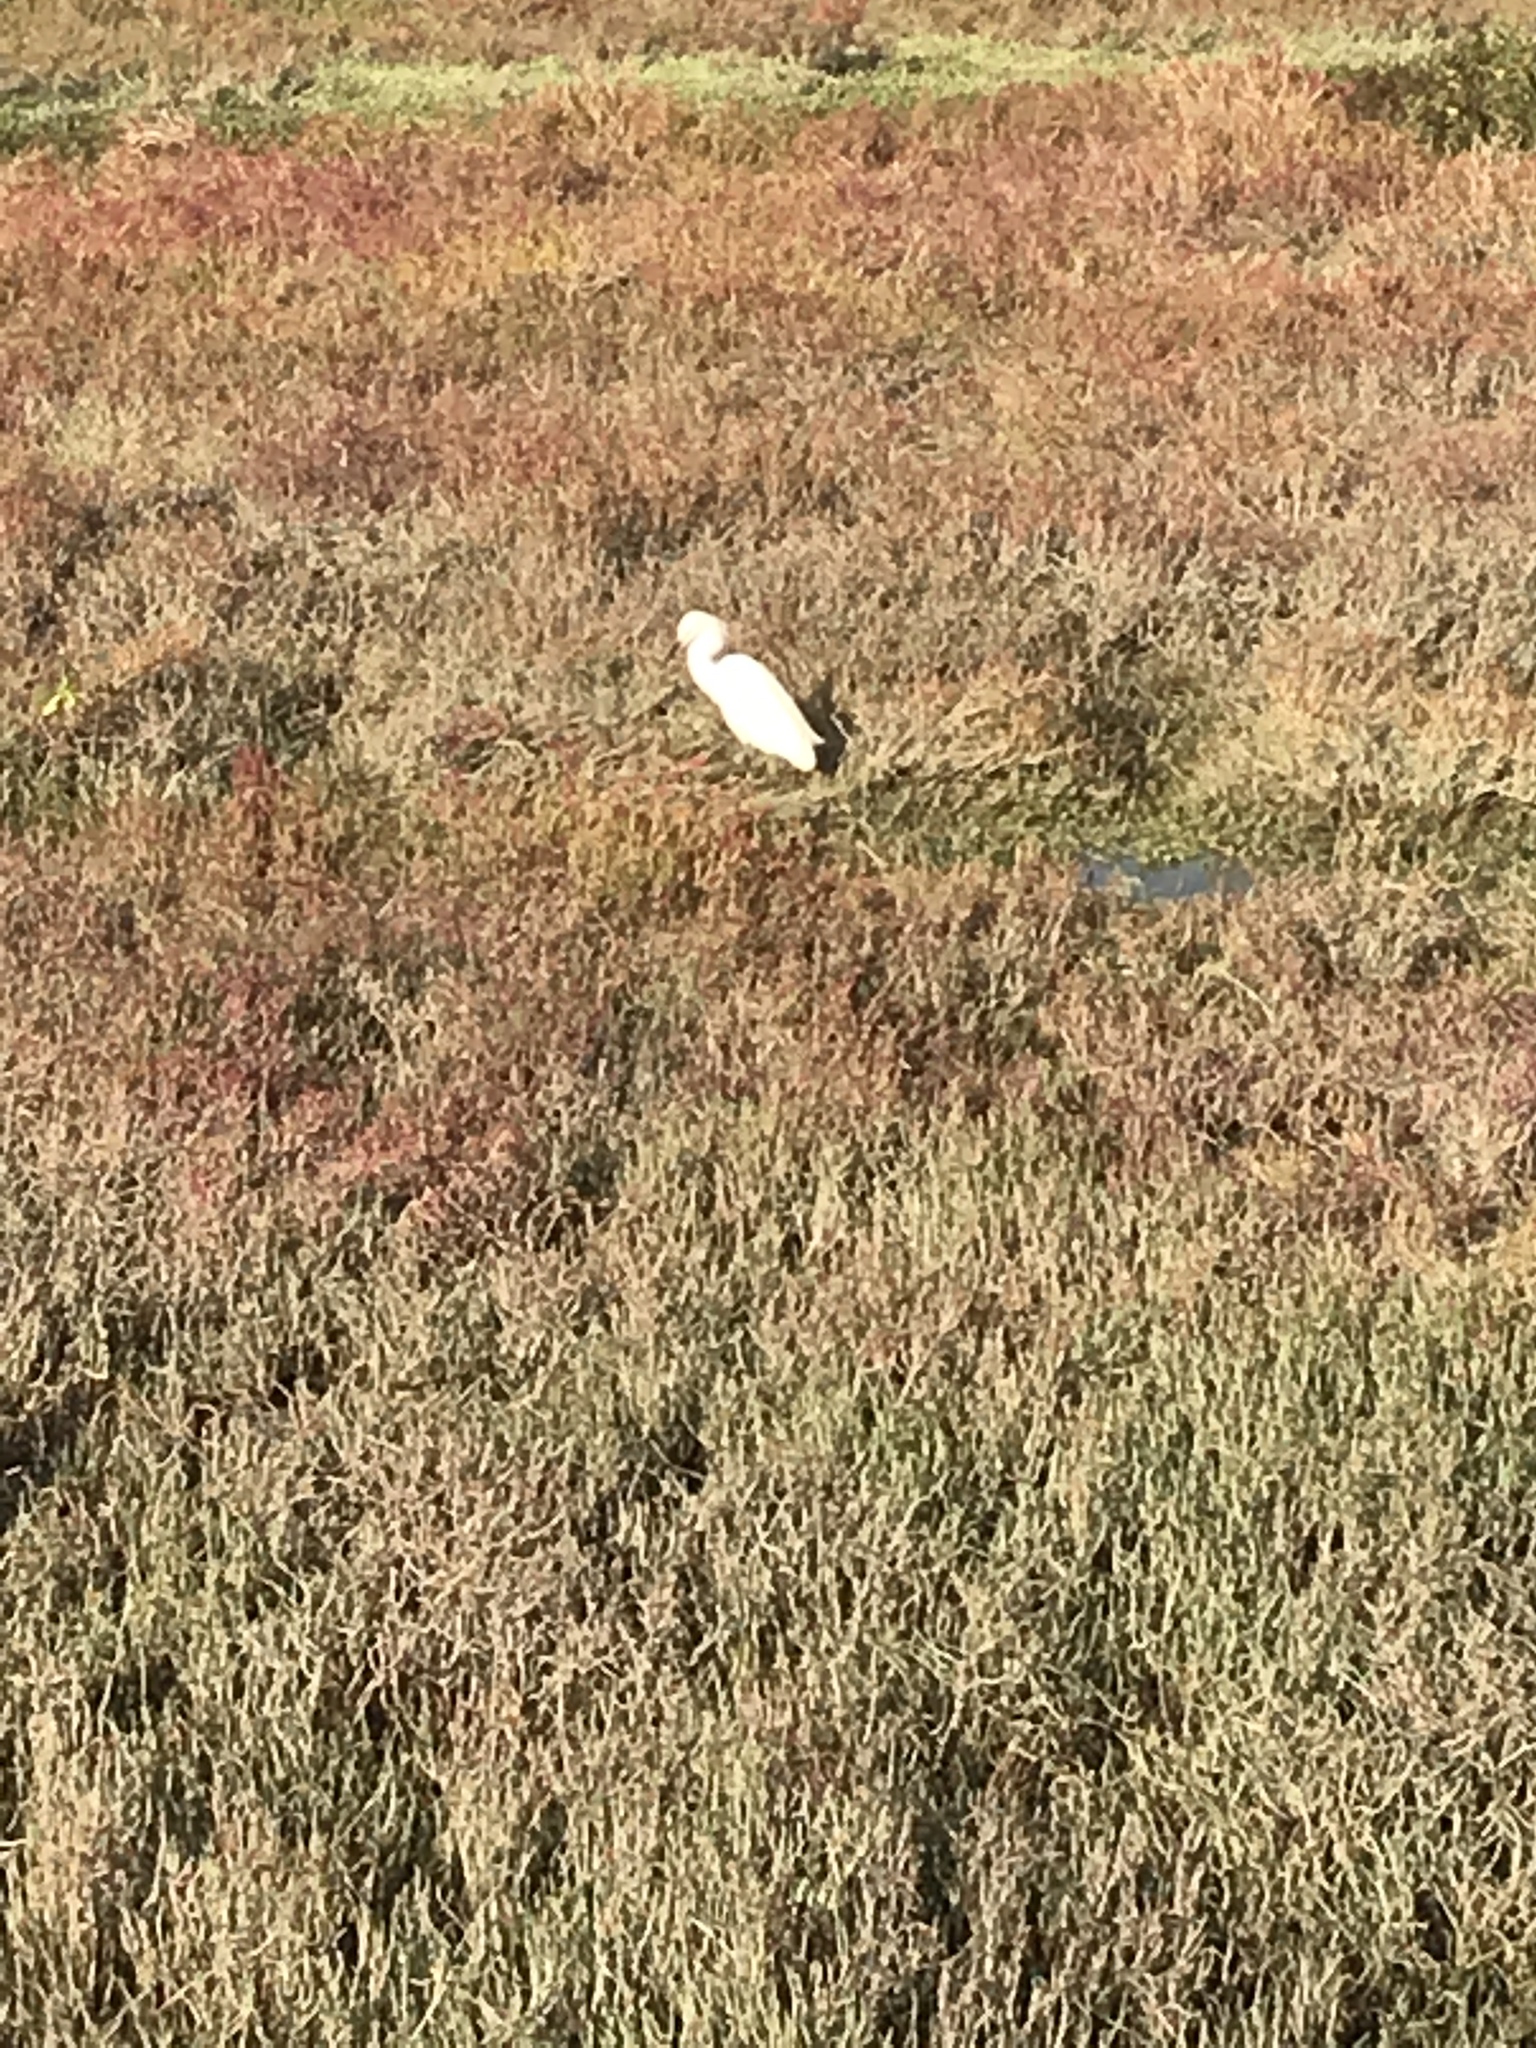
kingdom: Animalia
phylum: Chordata
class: Aves
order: Pelecaniformes
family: Ardeidae
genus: Egretta
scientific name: Egretta thula
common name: Snowy egret
